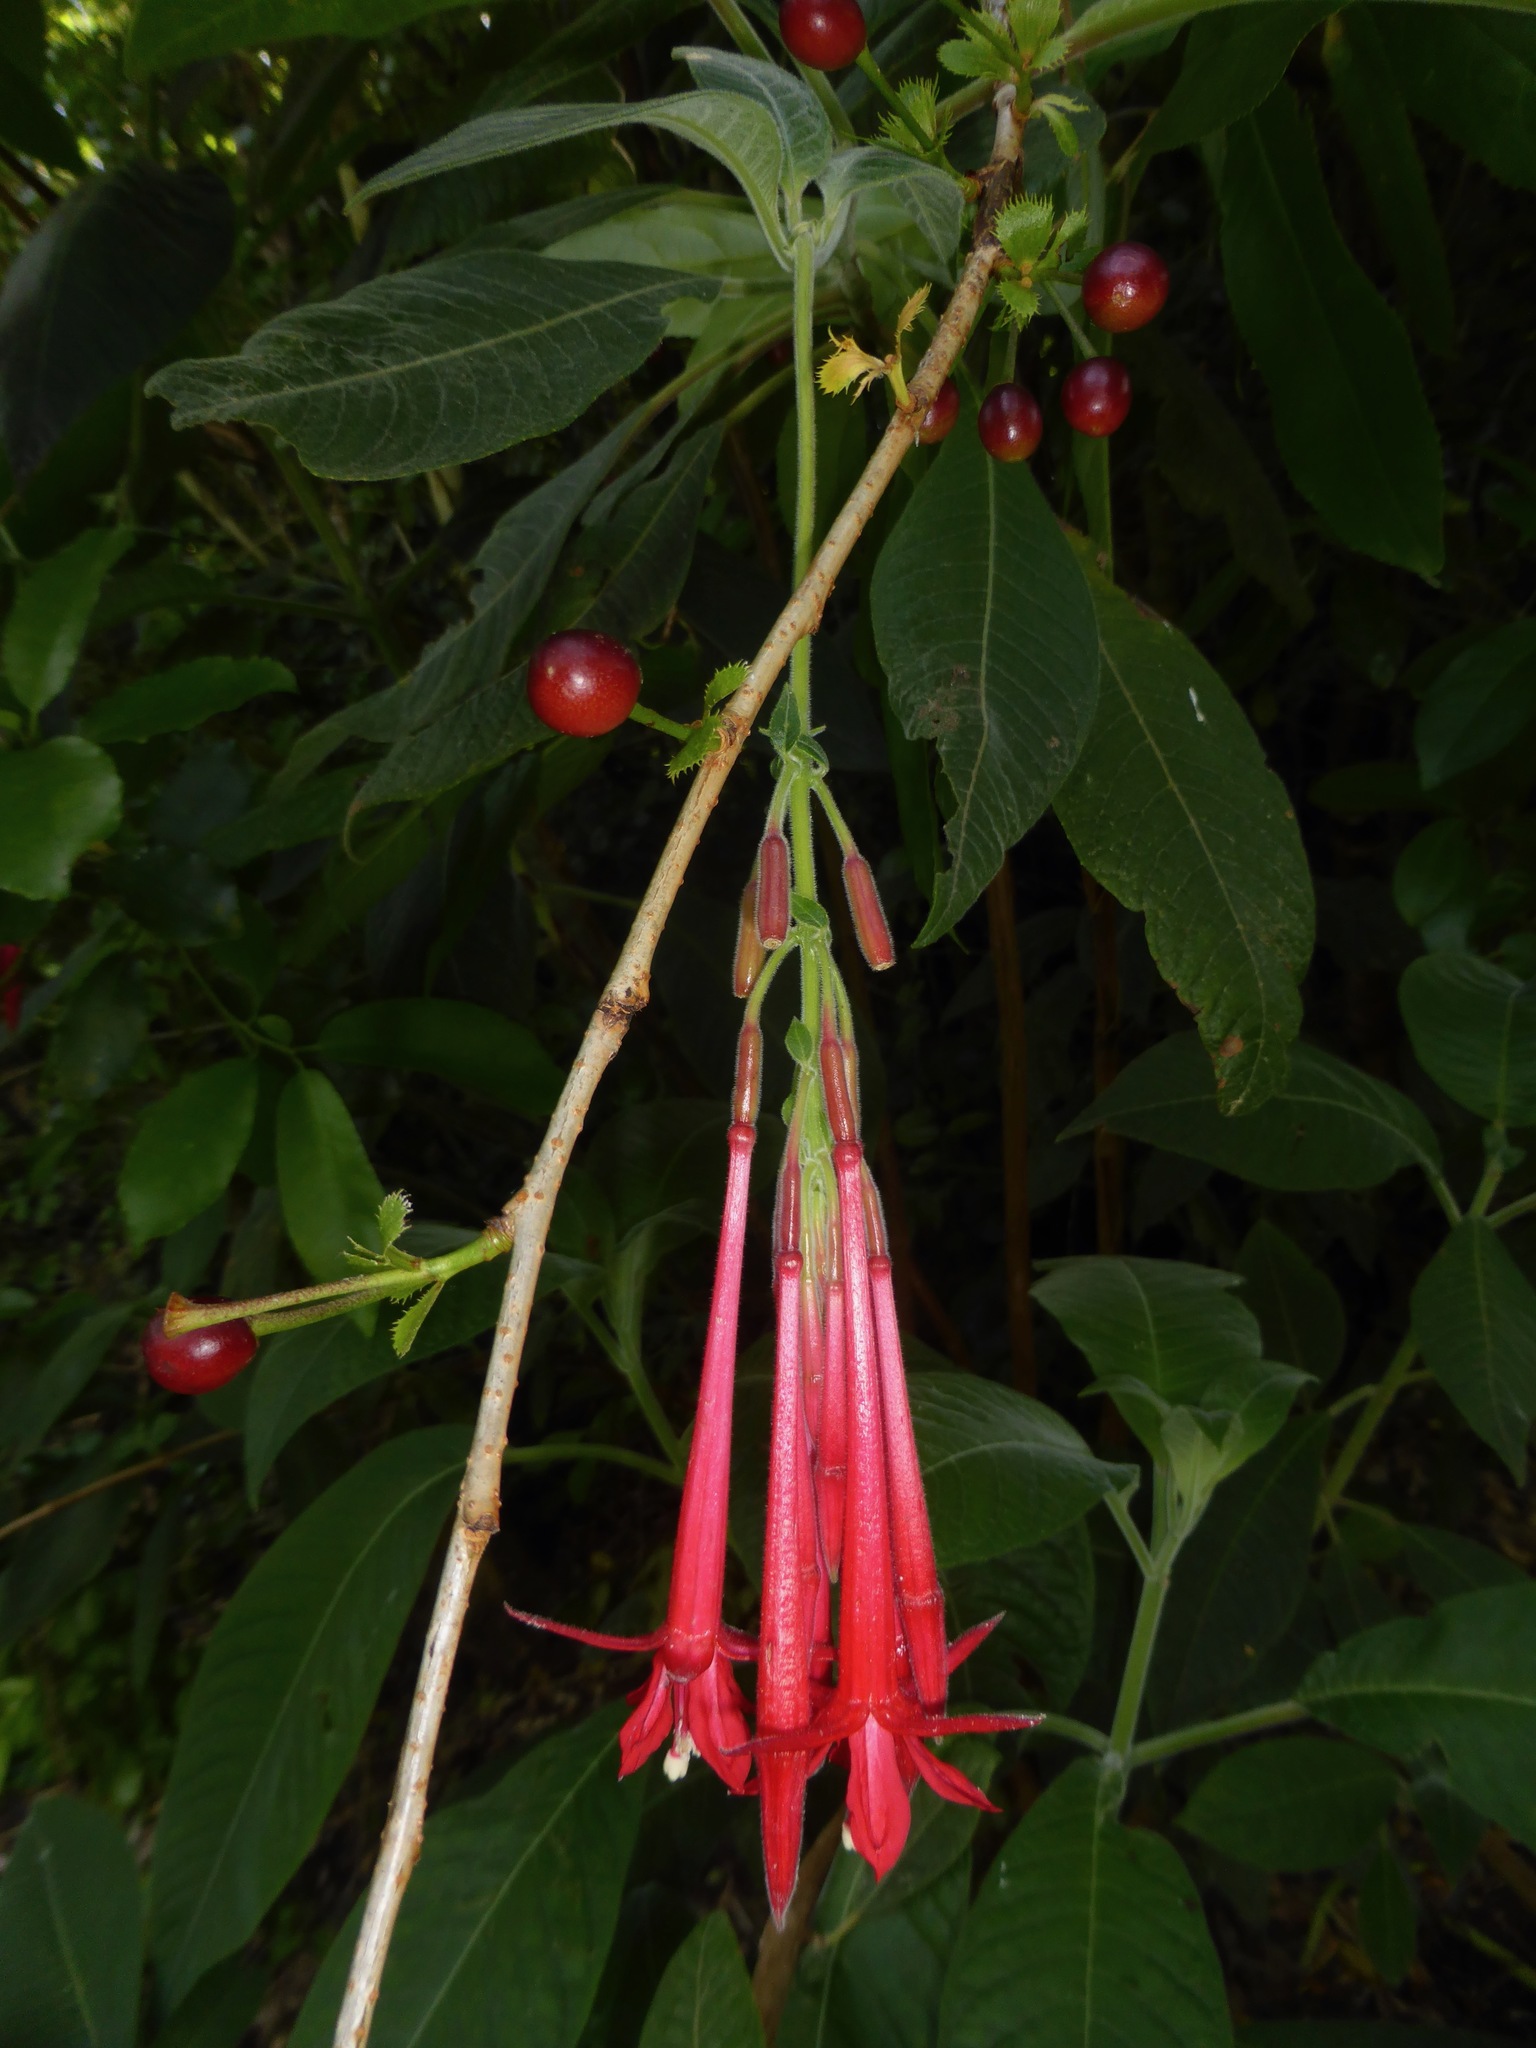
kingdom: Plantae
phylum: Tracheophyta
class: Magnoliopsida
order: Myrtales
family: Onagraceae
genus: Fuchsia
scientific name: Fuchsia boliviana
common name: Bolivian fuchsia
